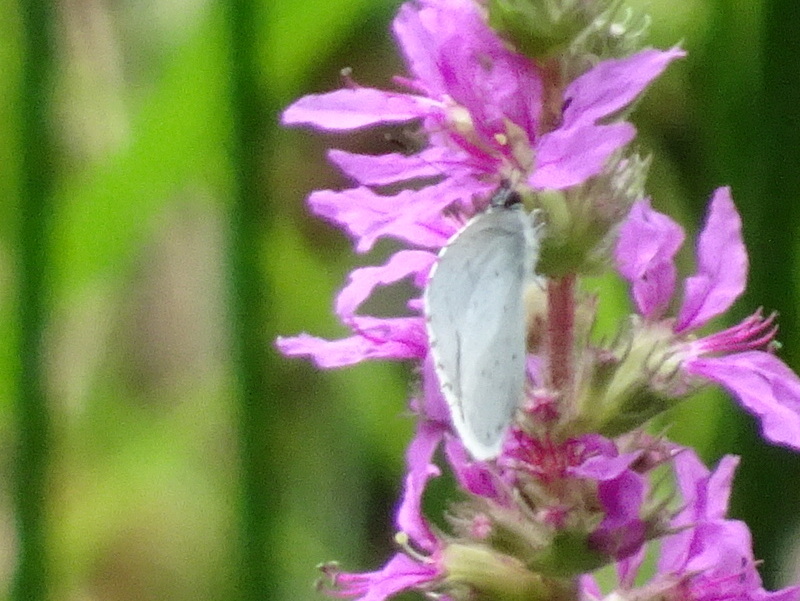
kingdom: Animalia
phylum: Arthropoda
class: Insecta
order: Lepidoptera
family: Lycaenidae
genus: Celastrina
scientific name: Celastrina argiolus
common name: Holly blue
